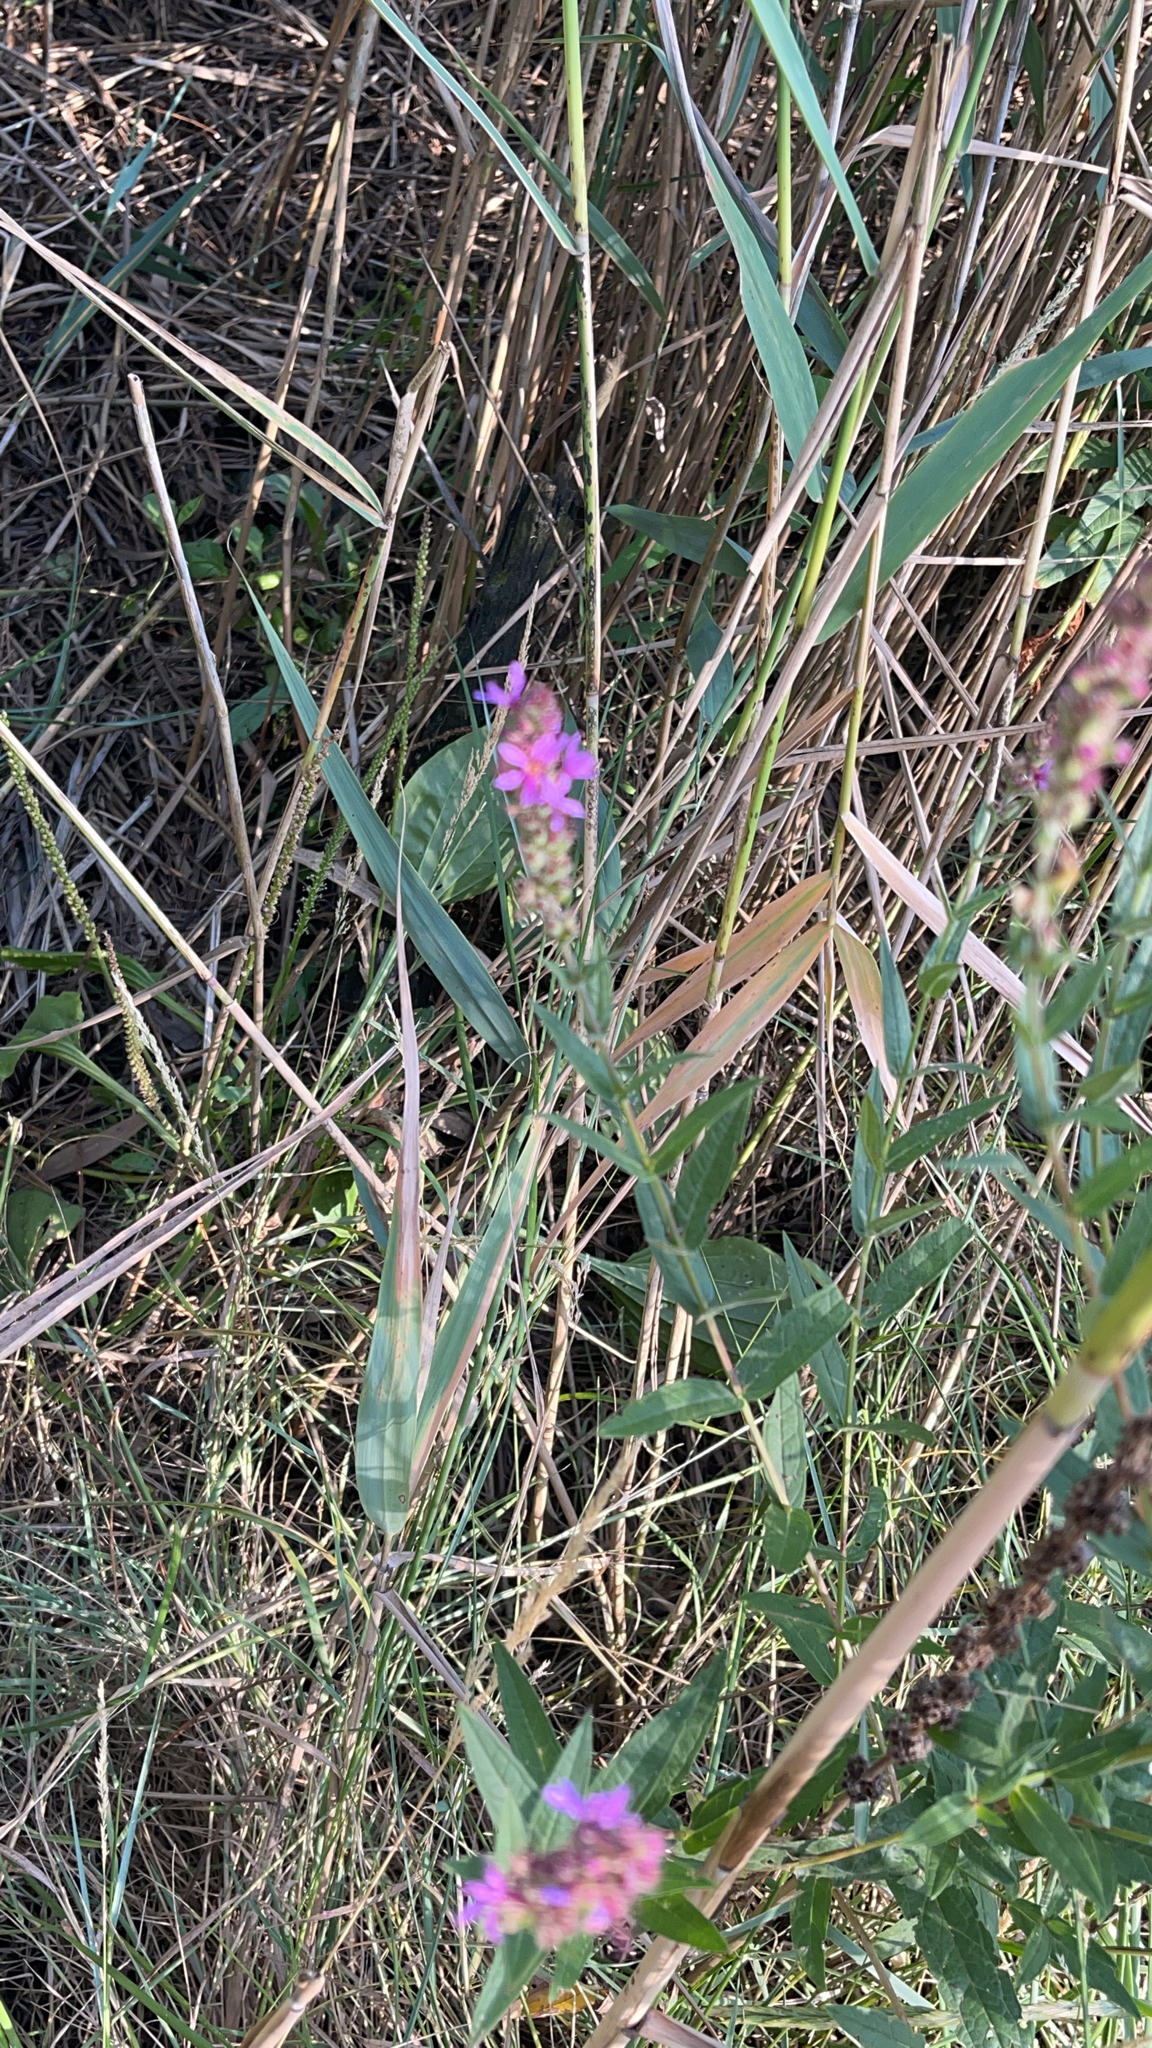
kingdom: Plantae
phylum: Tracheophyta
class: Magnoliopsida
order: Myrtales
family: Lythraceae
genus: Lythrum
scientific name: Lythrum salicaria
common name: Purple loosestrife
